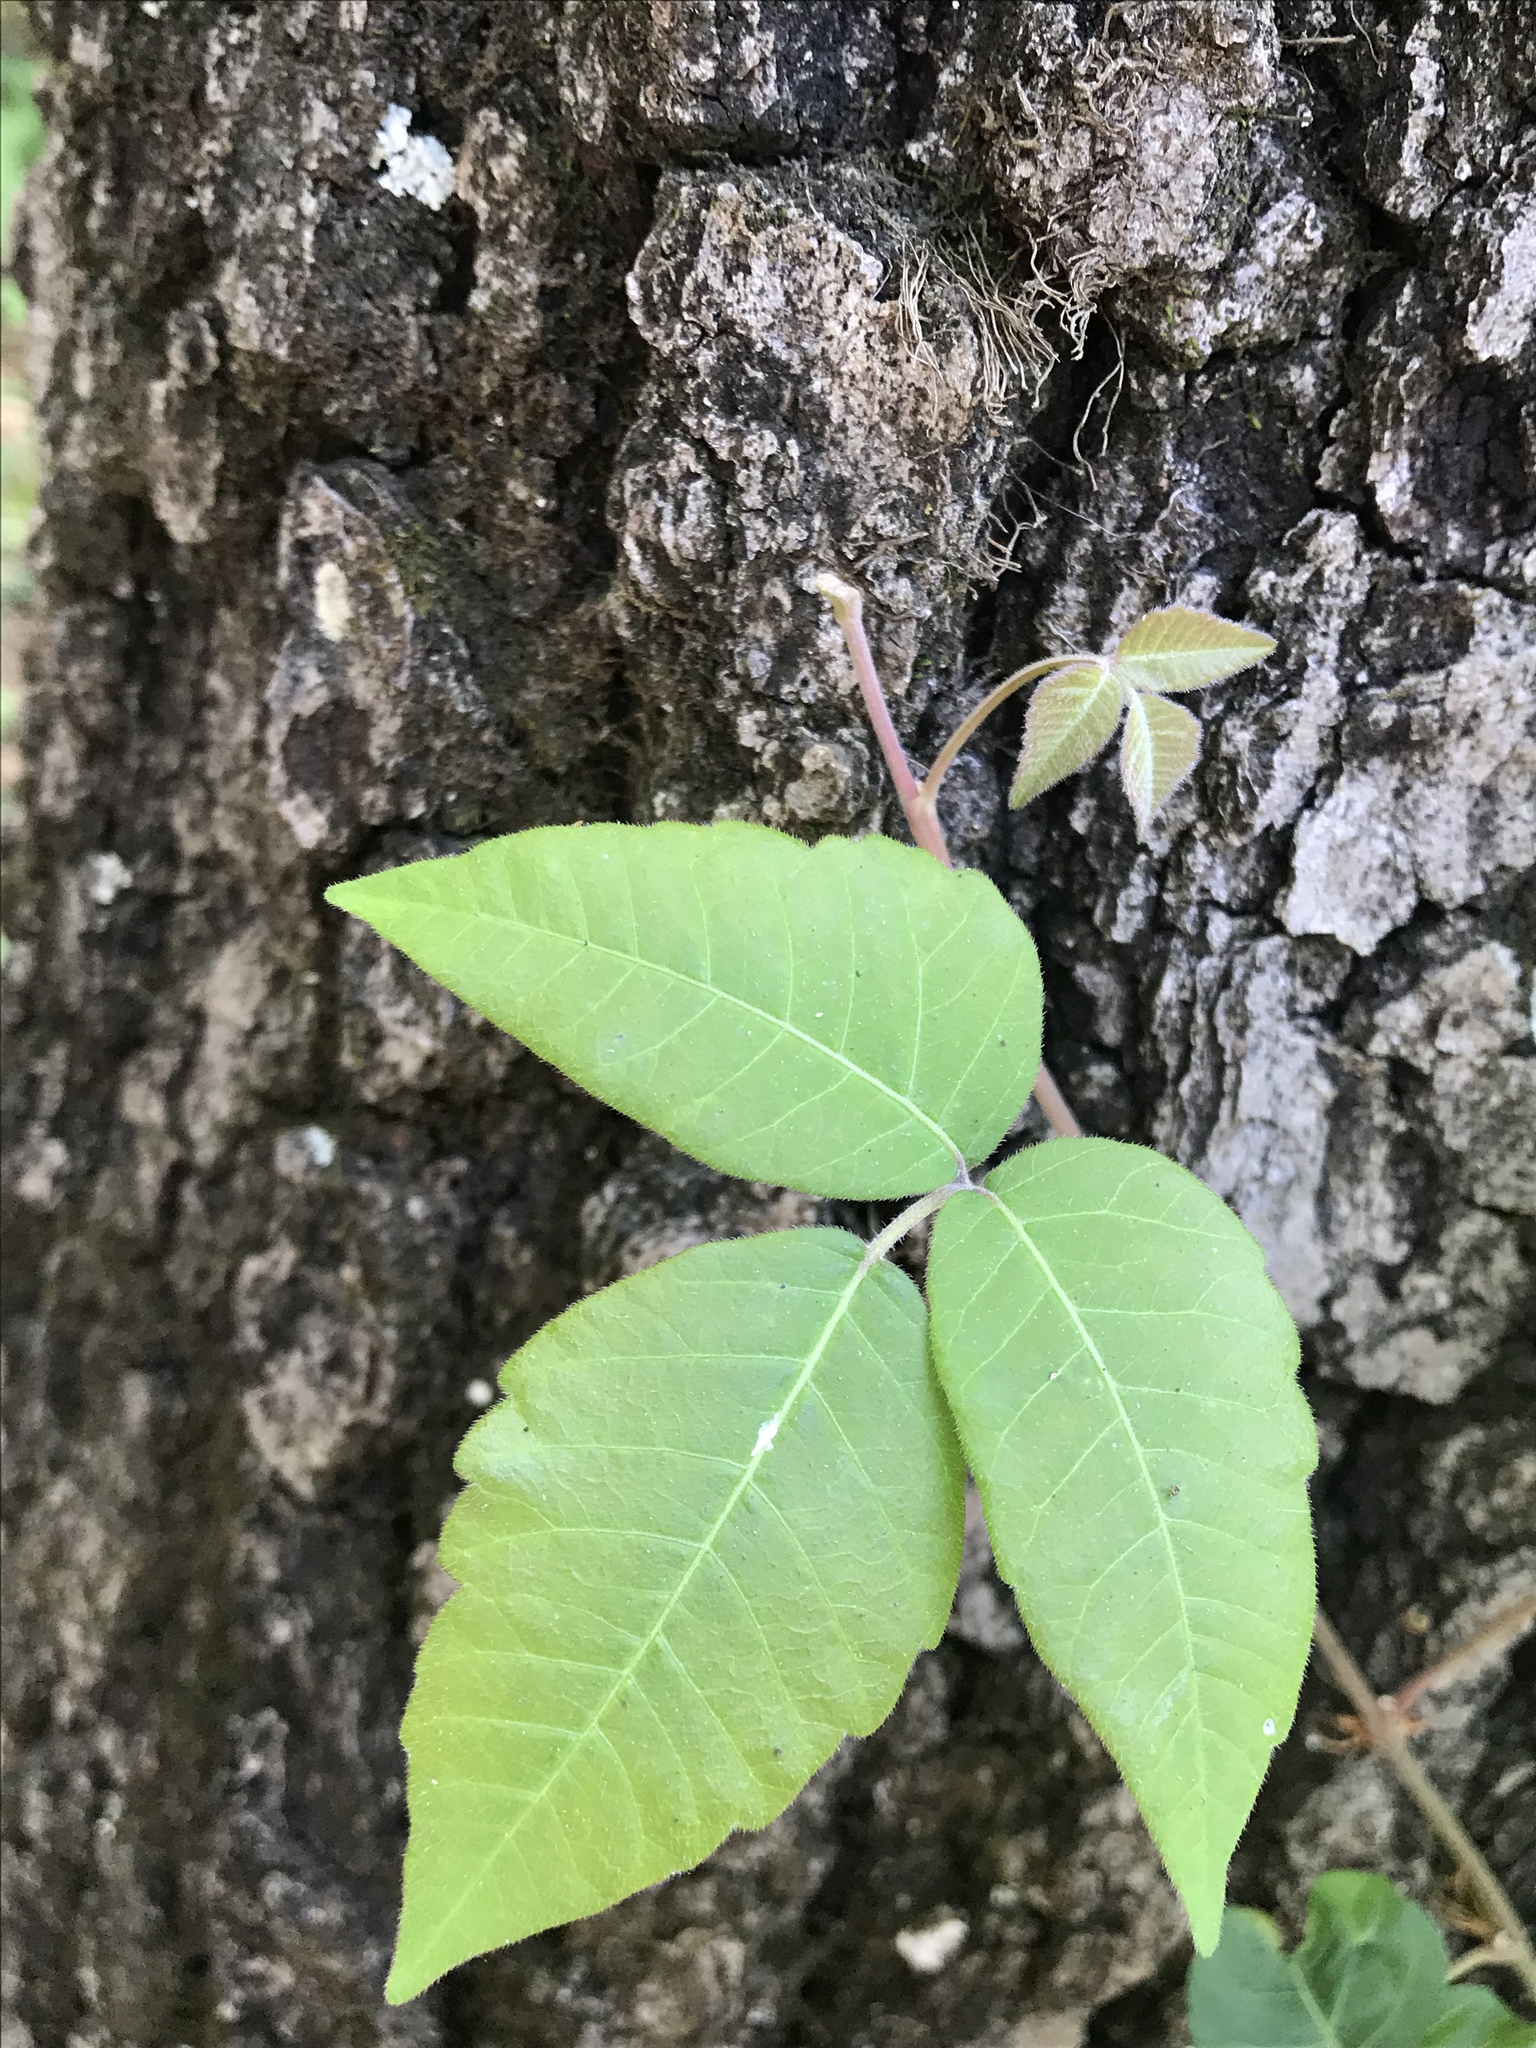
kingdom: Plantae
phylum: Tracheophyta
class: Magnoliopsida
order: Sapindales
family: Anacardiaceae
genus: Toxicodendron
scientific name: Toxicodendron radicans
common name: Poison ivy
